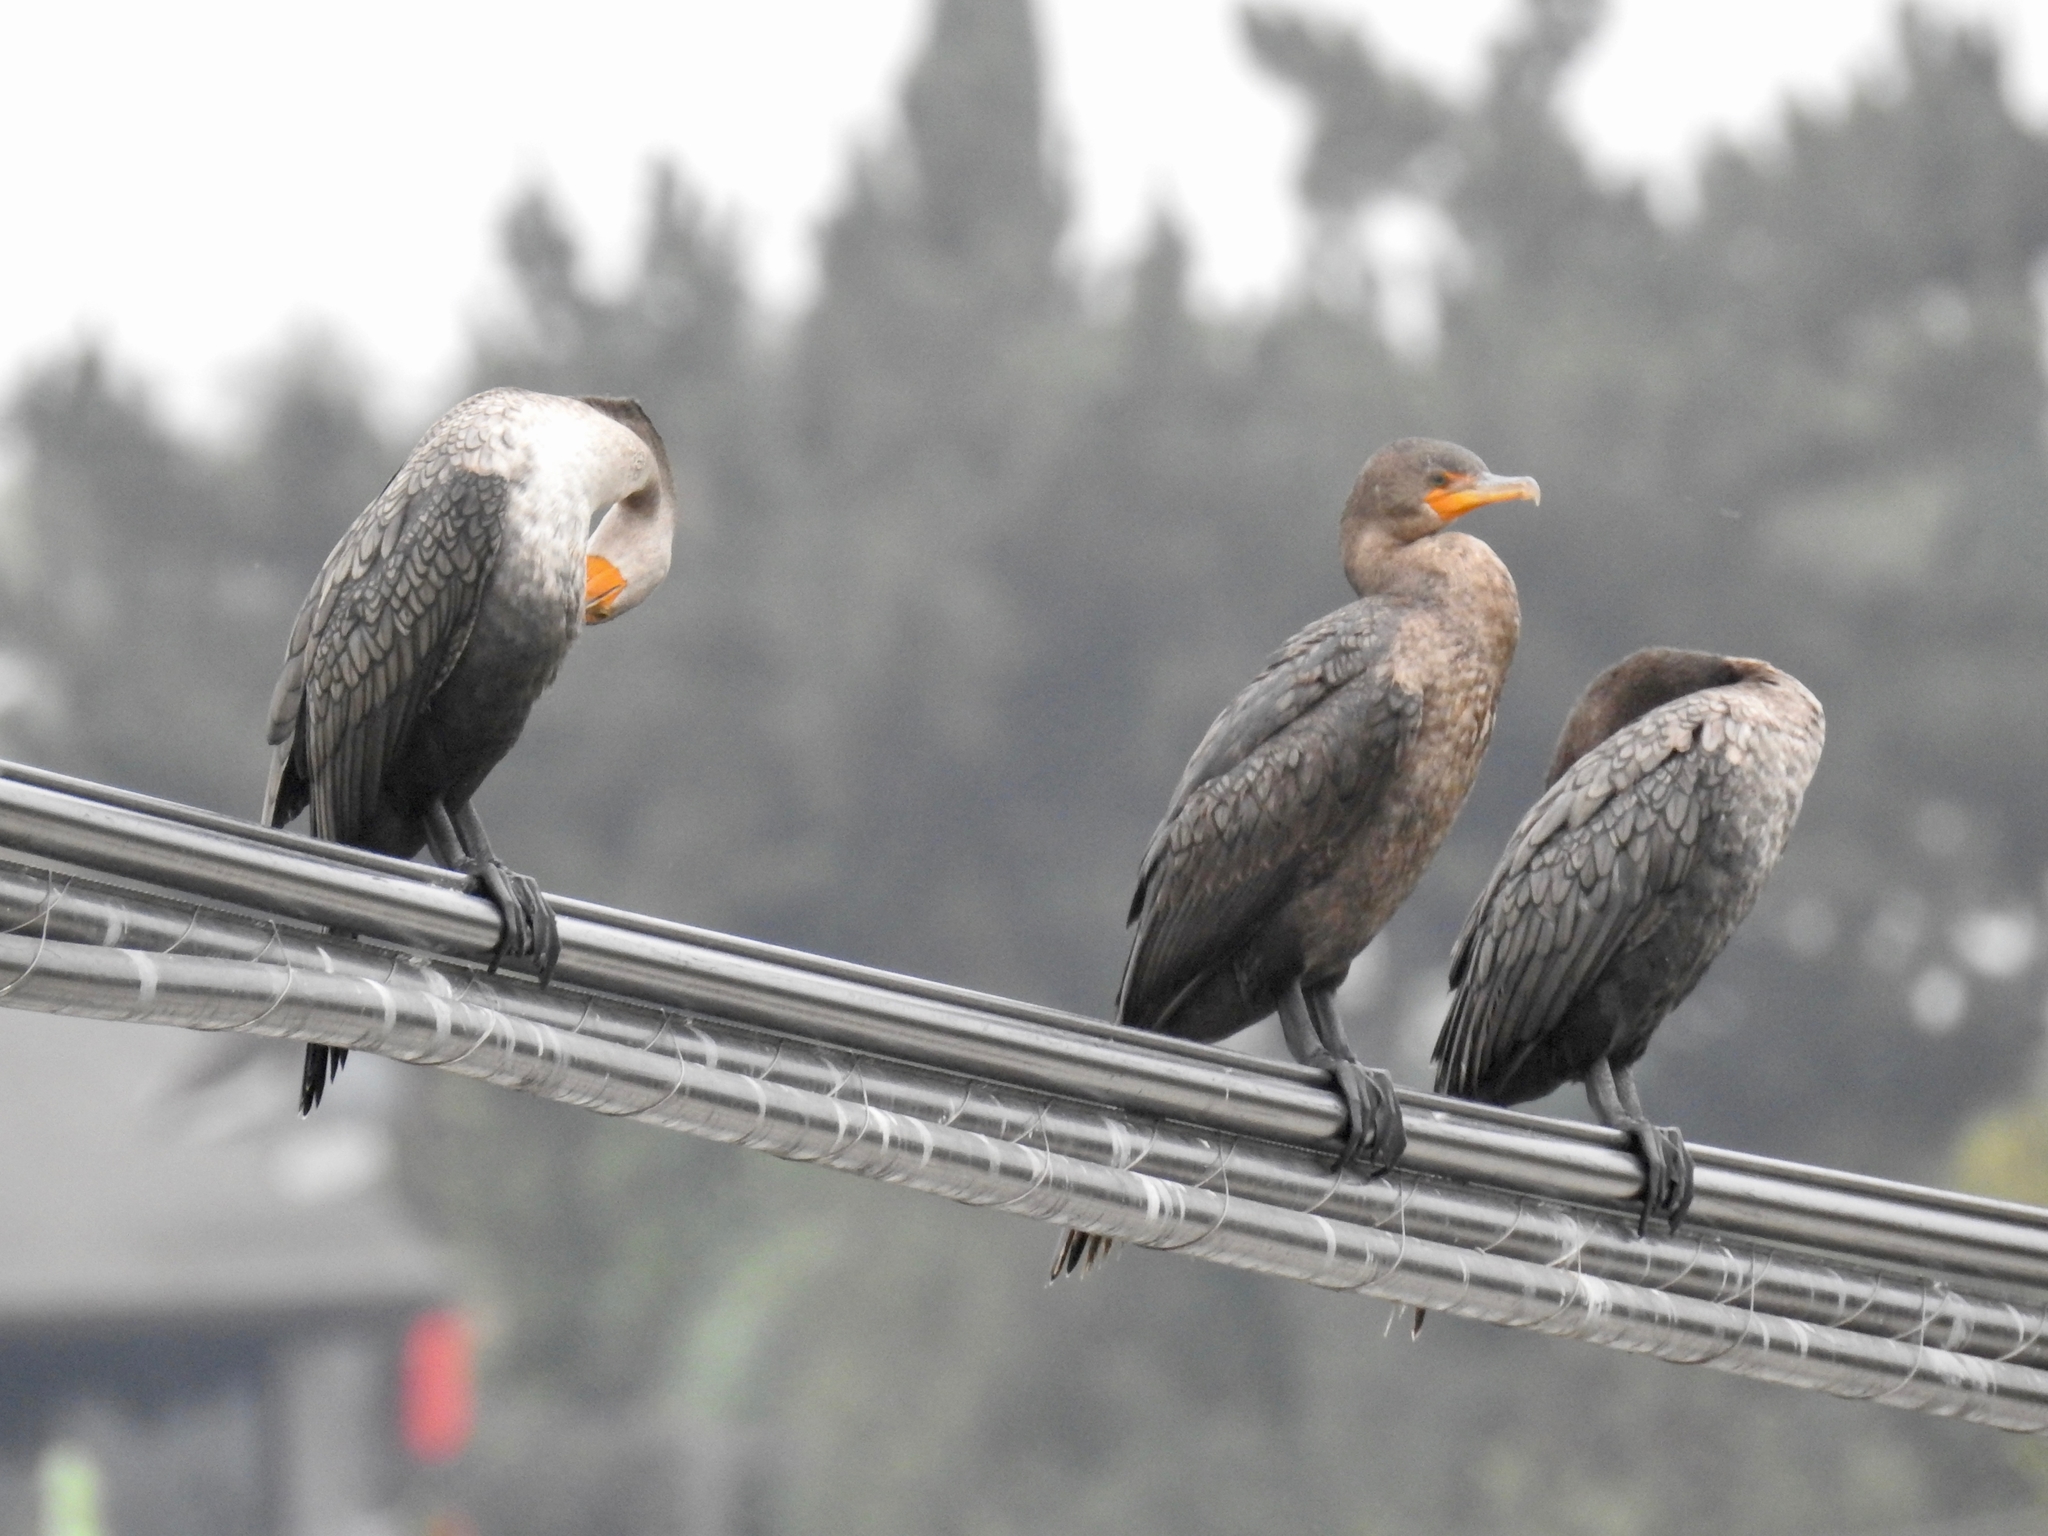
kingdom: Animalia
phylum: Chordata
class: Aves
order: Suliformes
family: Phalacrocoracidae
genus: Phalacrocorax
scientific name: Phalacrocorax auritus
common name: Double-crested cormorant
